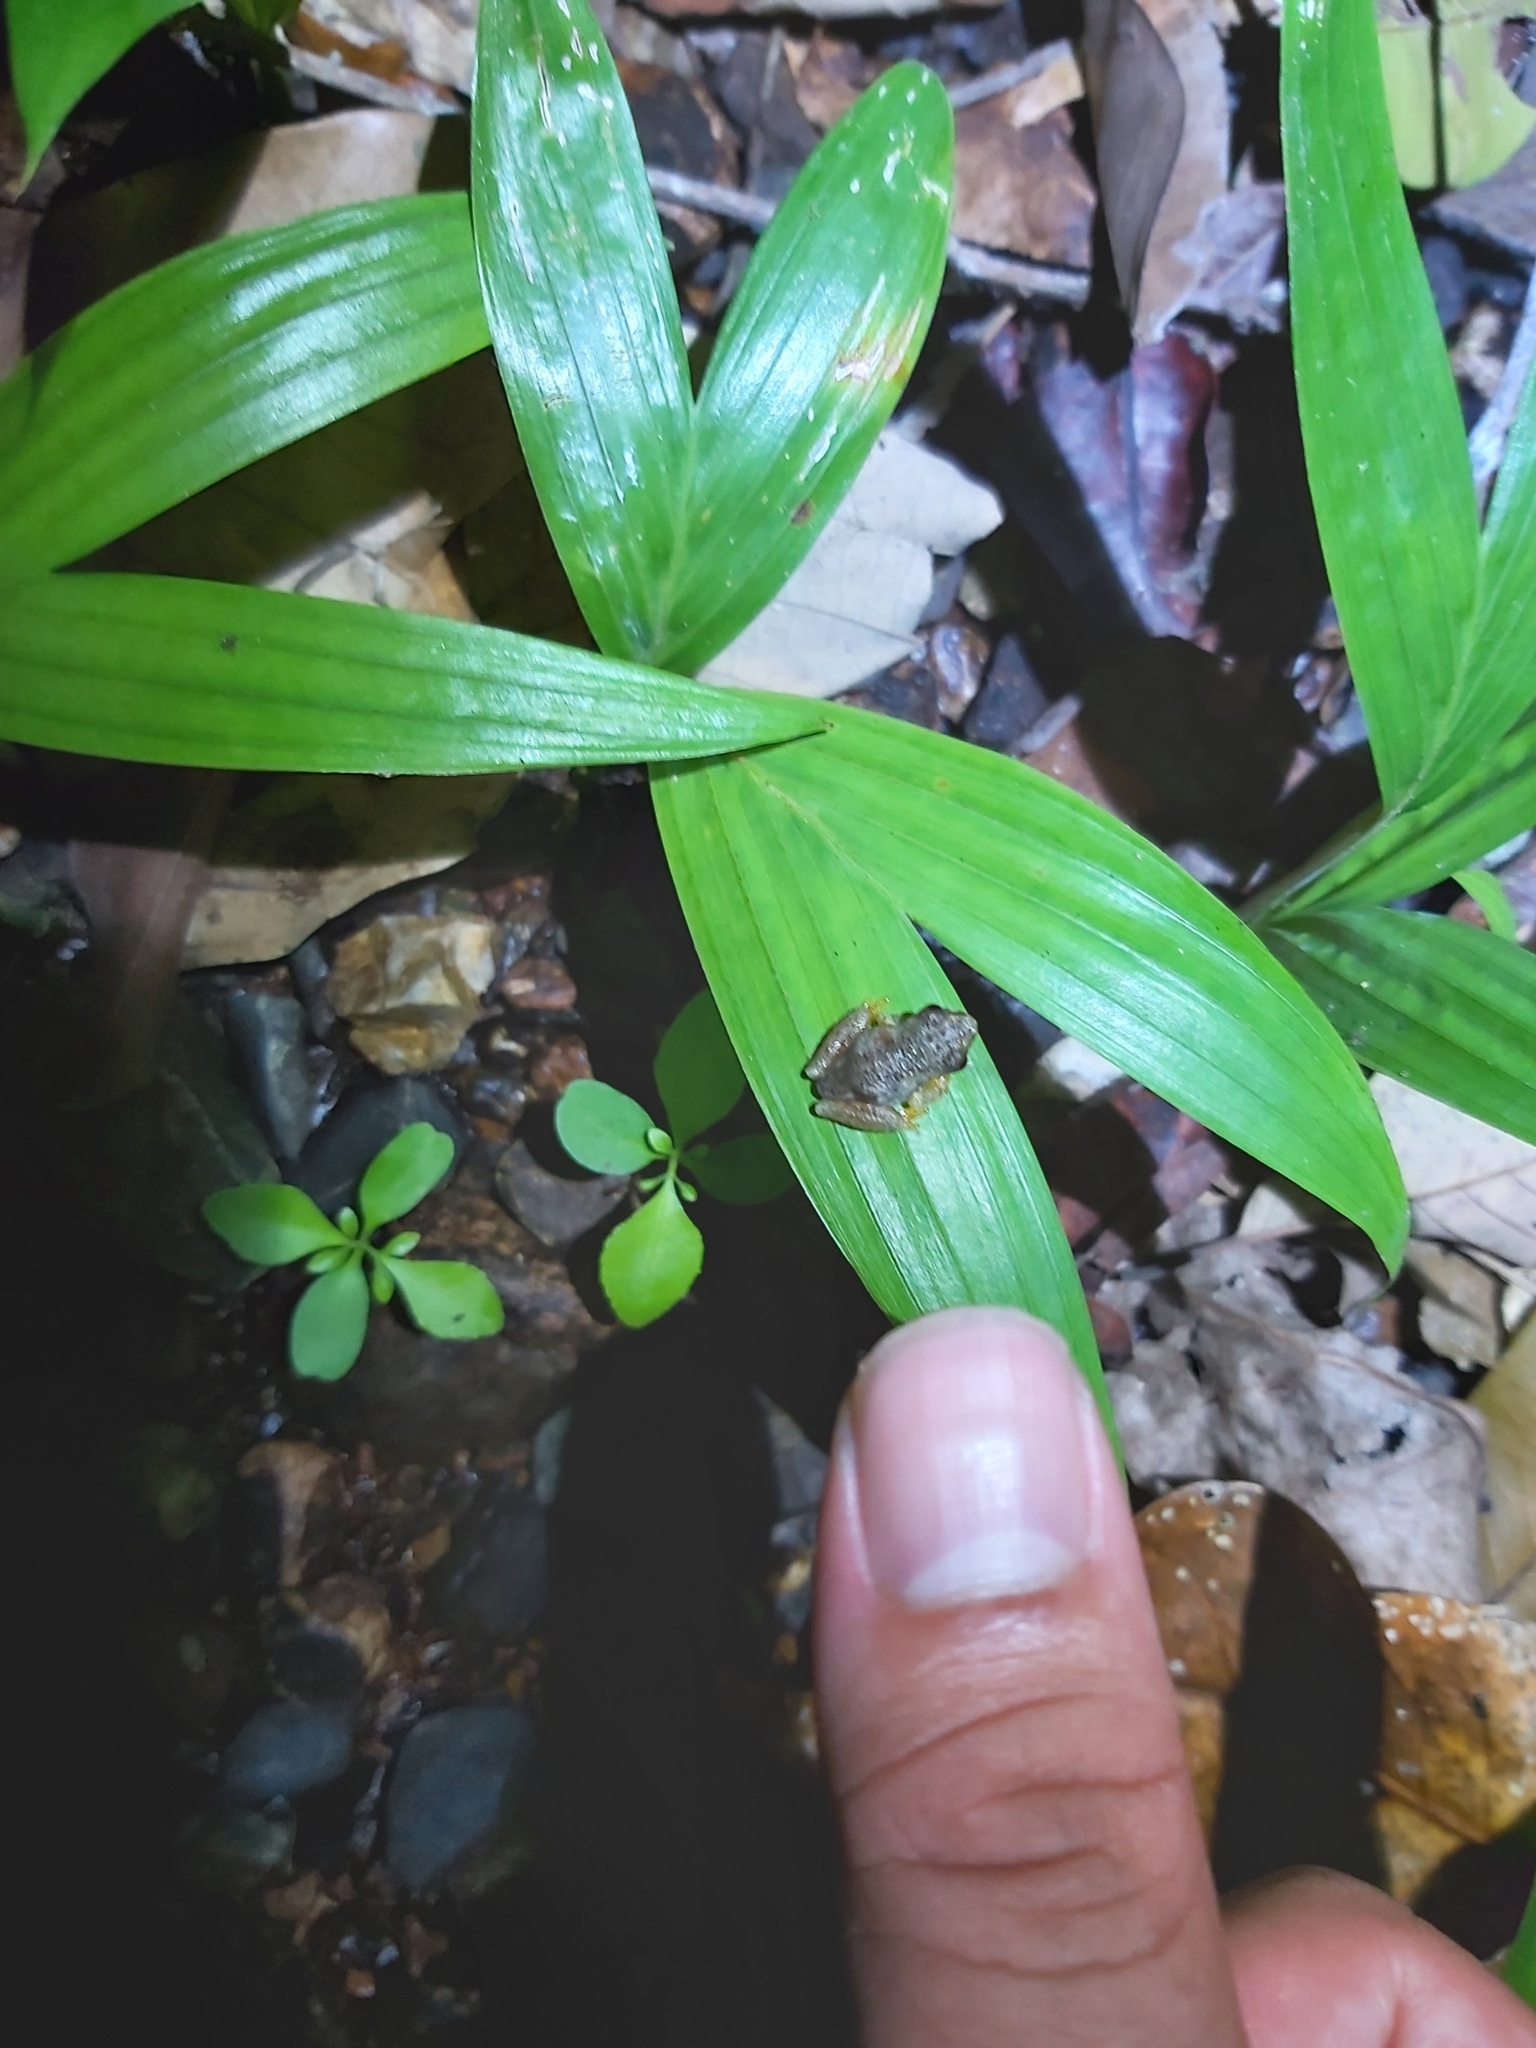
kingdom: Animalia
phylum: Chordata
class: Amphibia
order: Anura
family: Pelodryadidae
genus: Ranoidea
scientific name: Ranoidea rheocola
